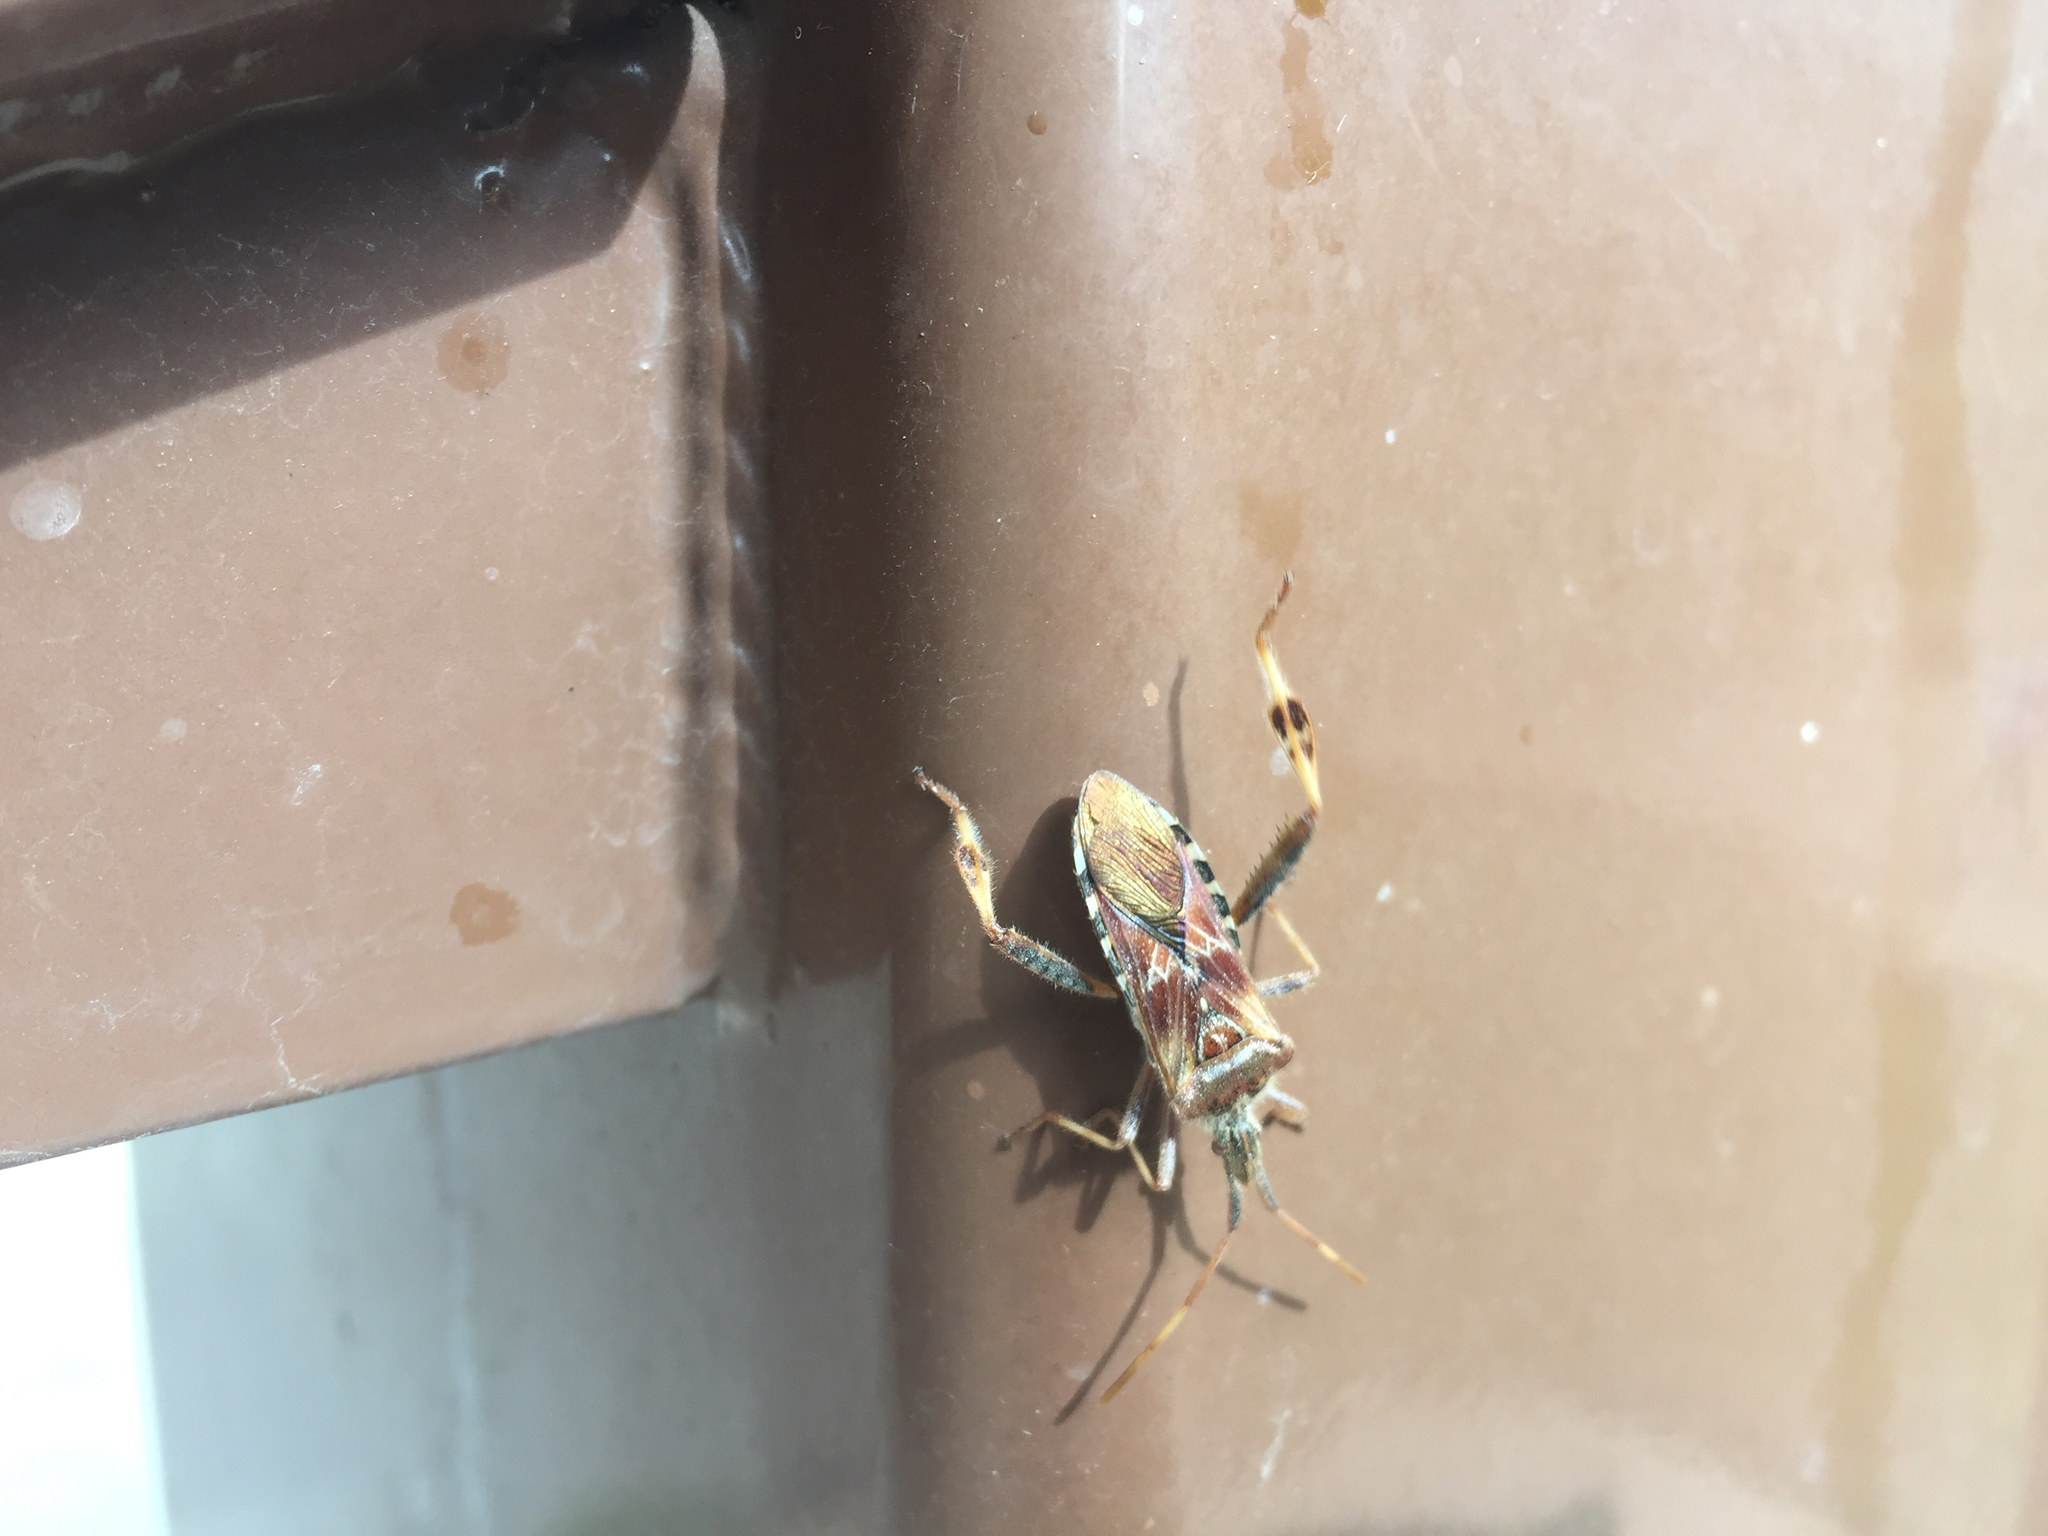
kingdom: Animalia
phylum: Arthropoda
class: Insecta
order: Hemiptera
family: Coreidae
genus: Leptoglossus
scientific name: Leptoglossus occidentalis
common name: Western conifer-seed bug
